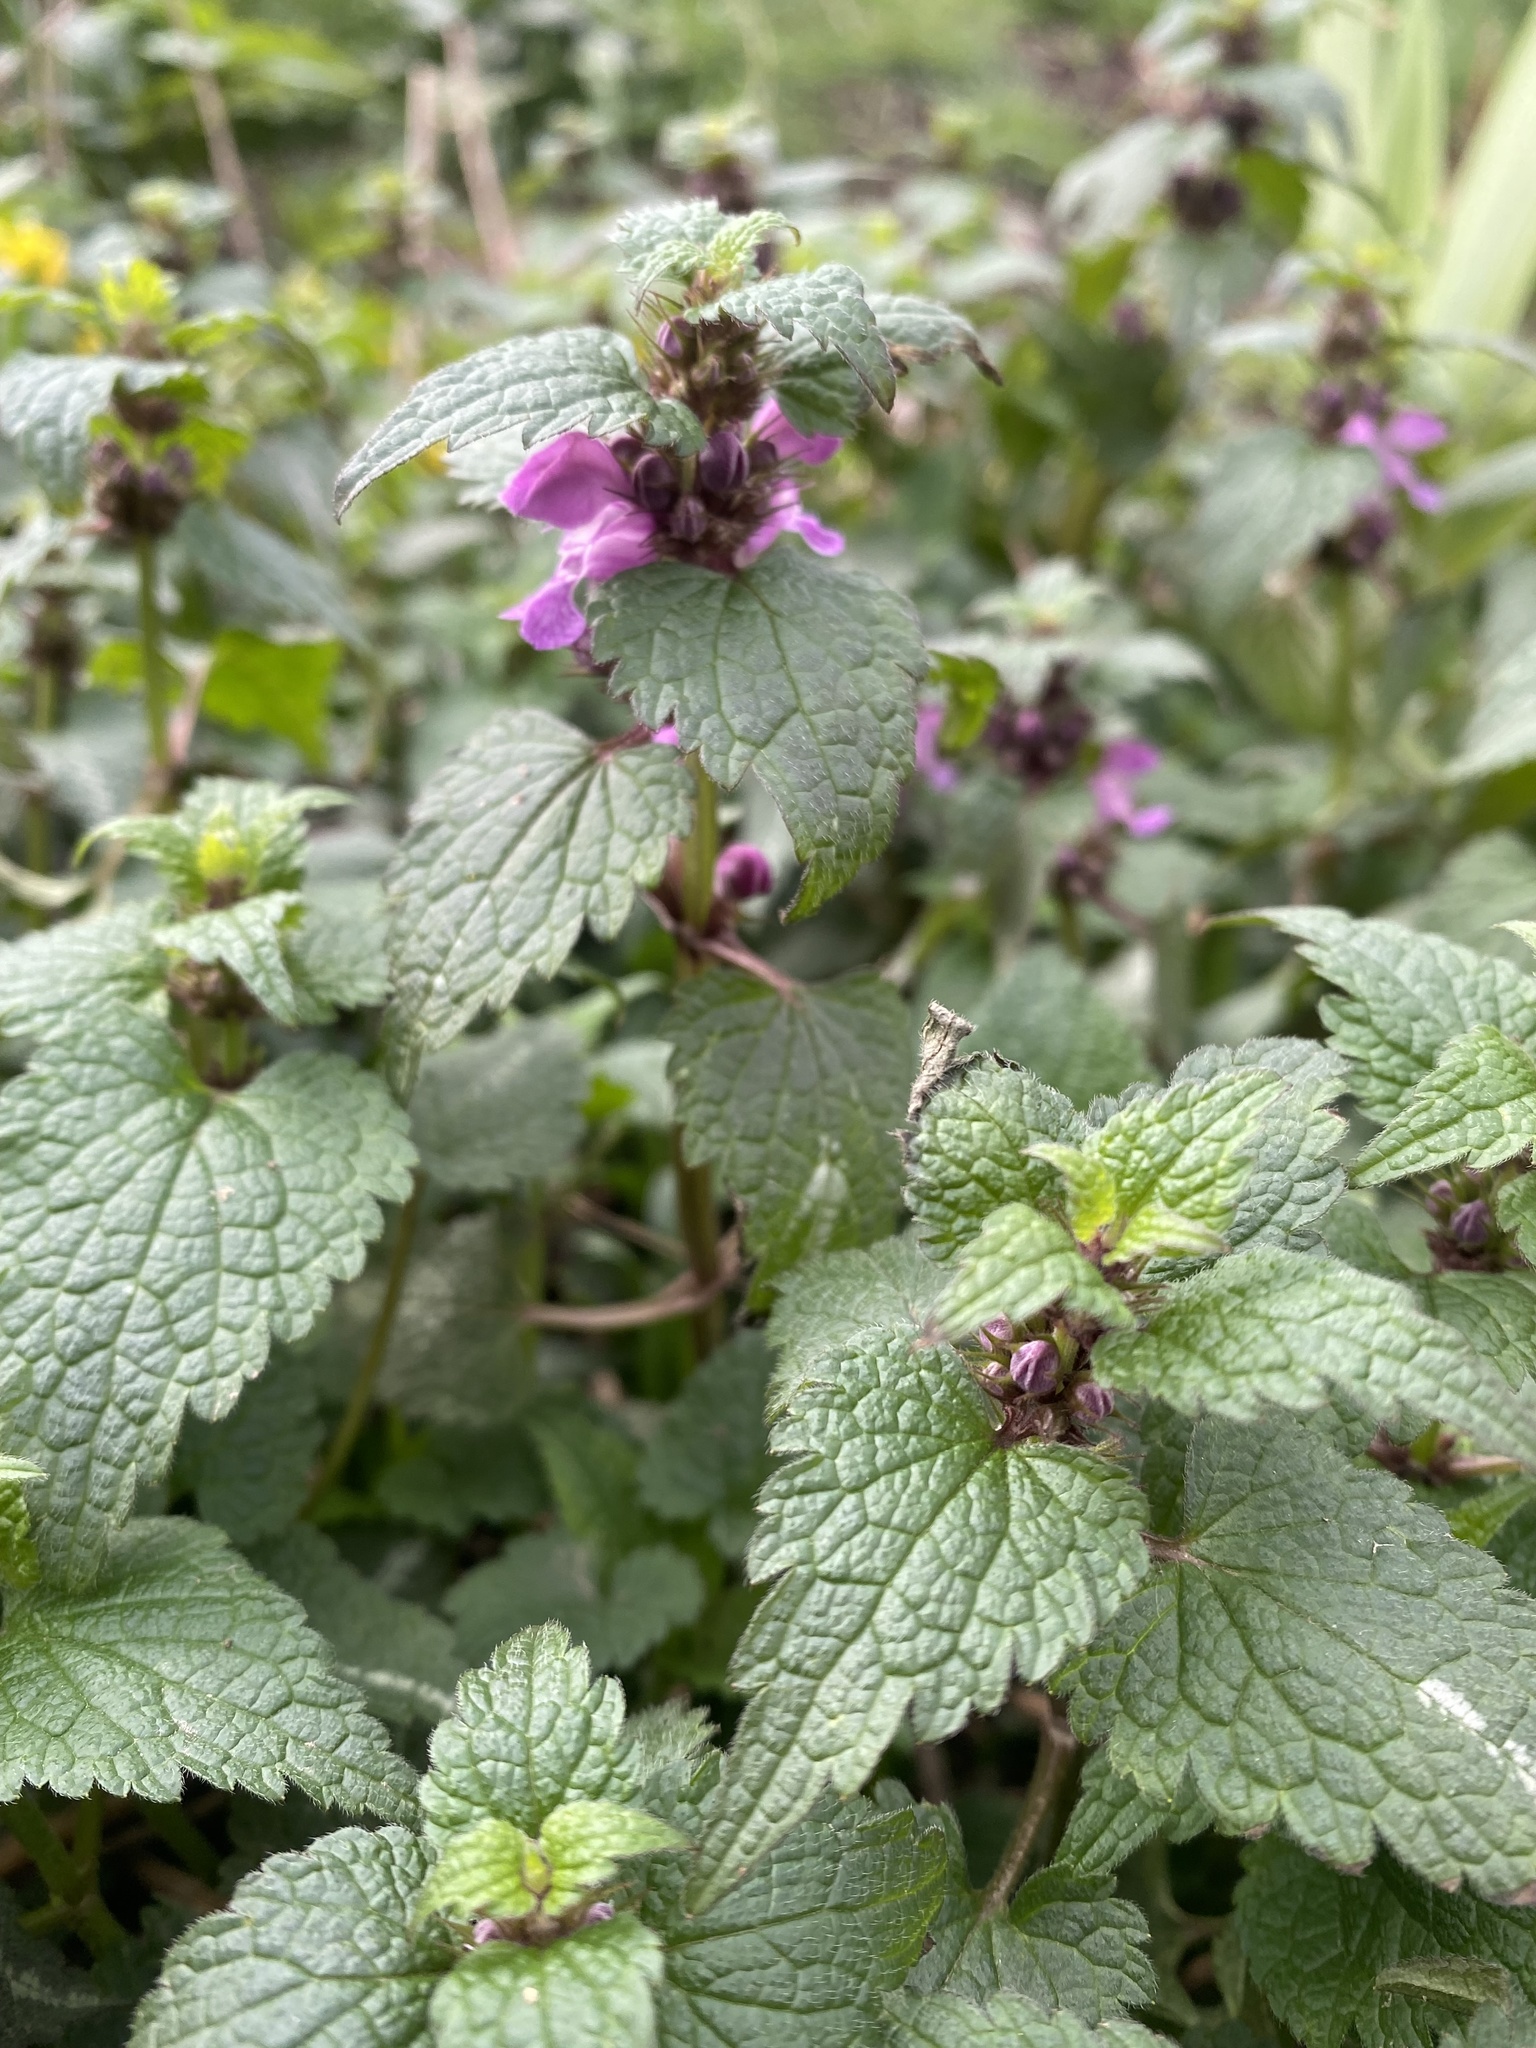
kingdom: Plantae
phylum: Tracheophyta
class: Magnoliopsida
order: Lamiales
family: Lamiaceae
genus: Lamium
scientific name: Lamium maculatum
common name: Spotted dead-nettle
